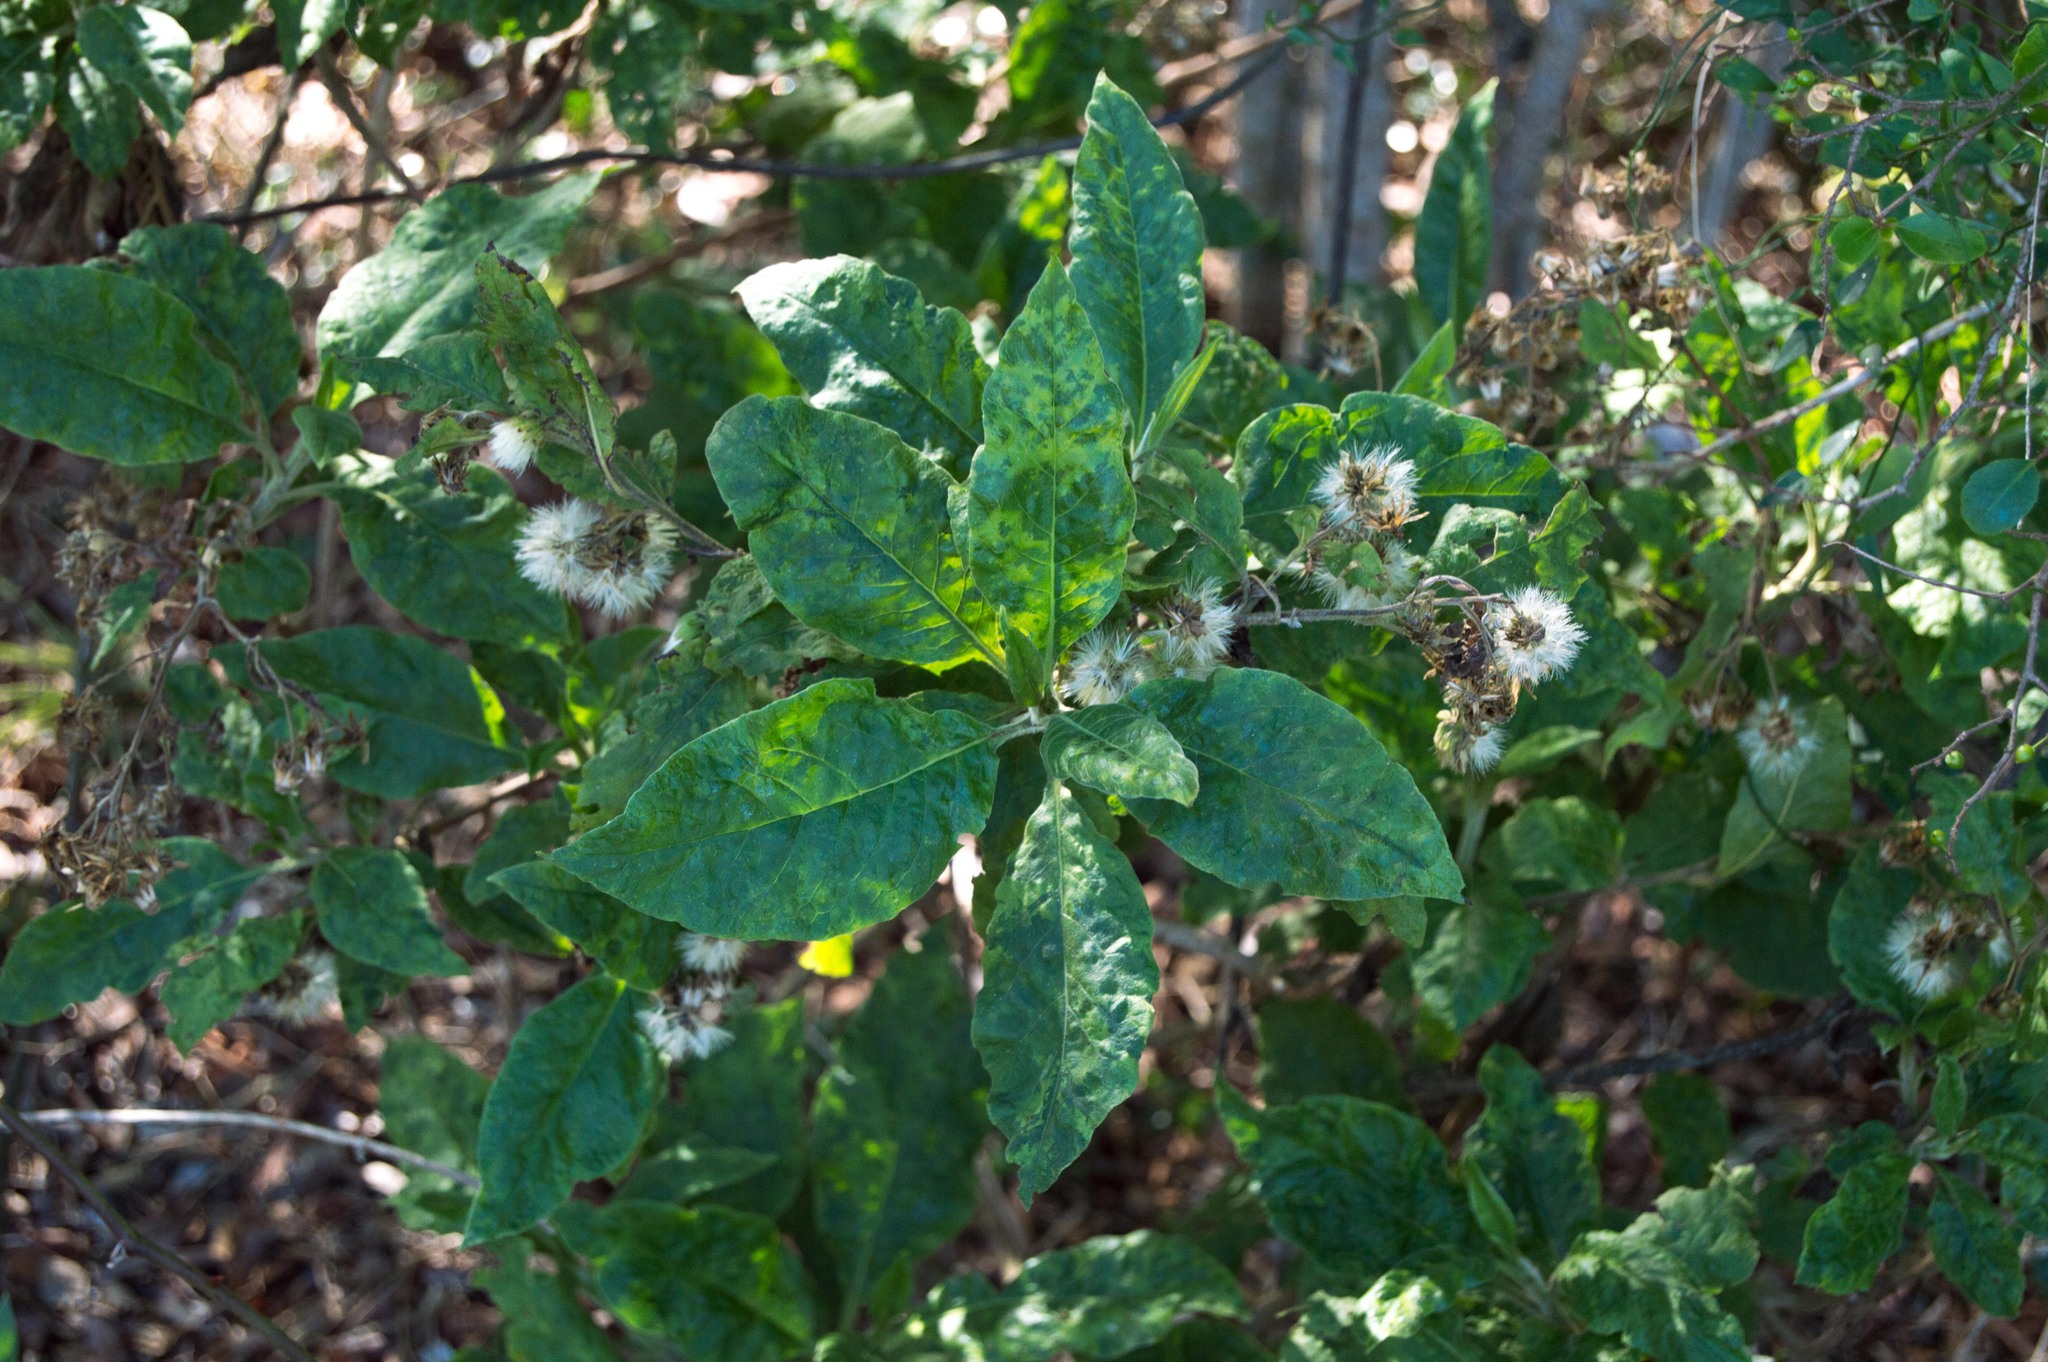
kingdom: Plantae
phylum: Tracheophyta
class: Magnoliopsida
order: Asterales
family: Asteraceae
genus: Trixis
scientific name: Trixis praestans
